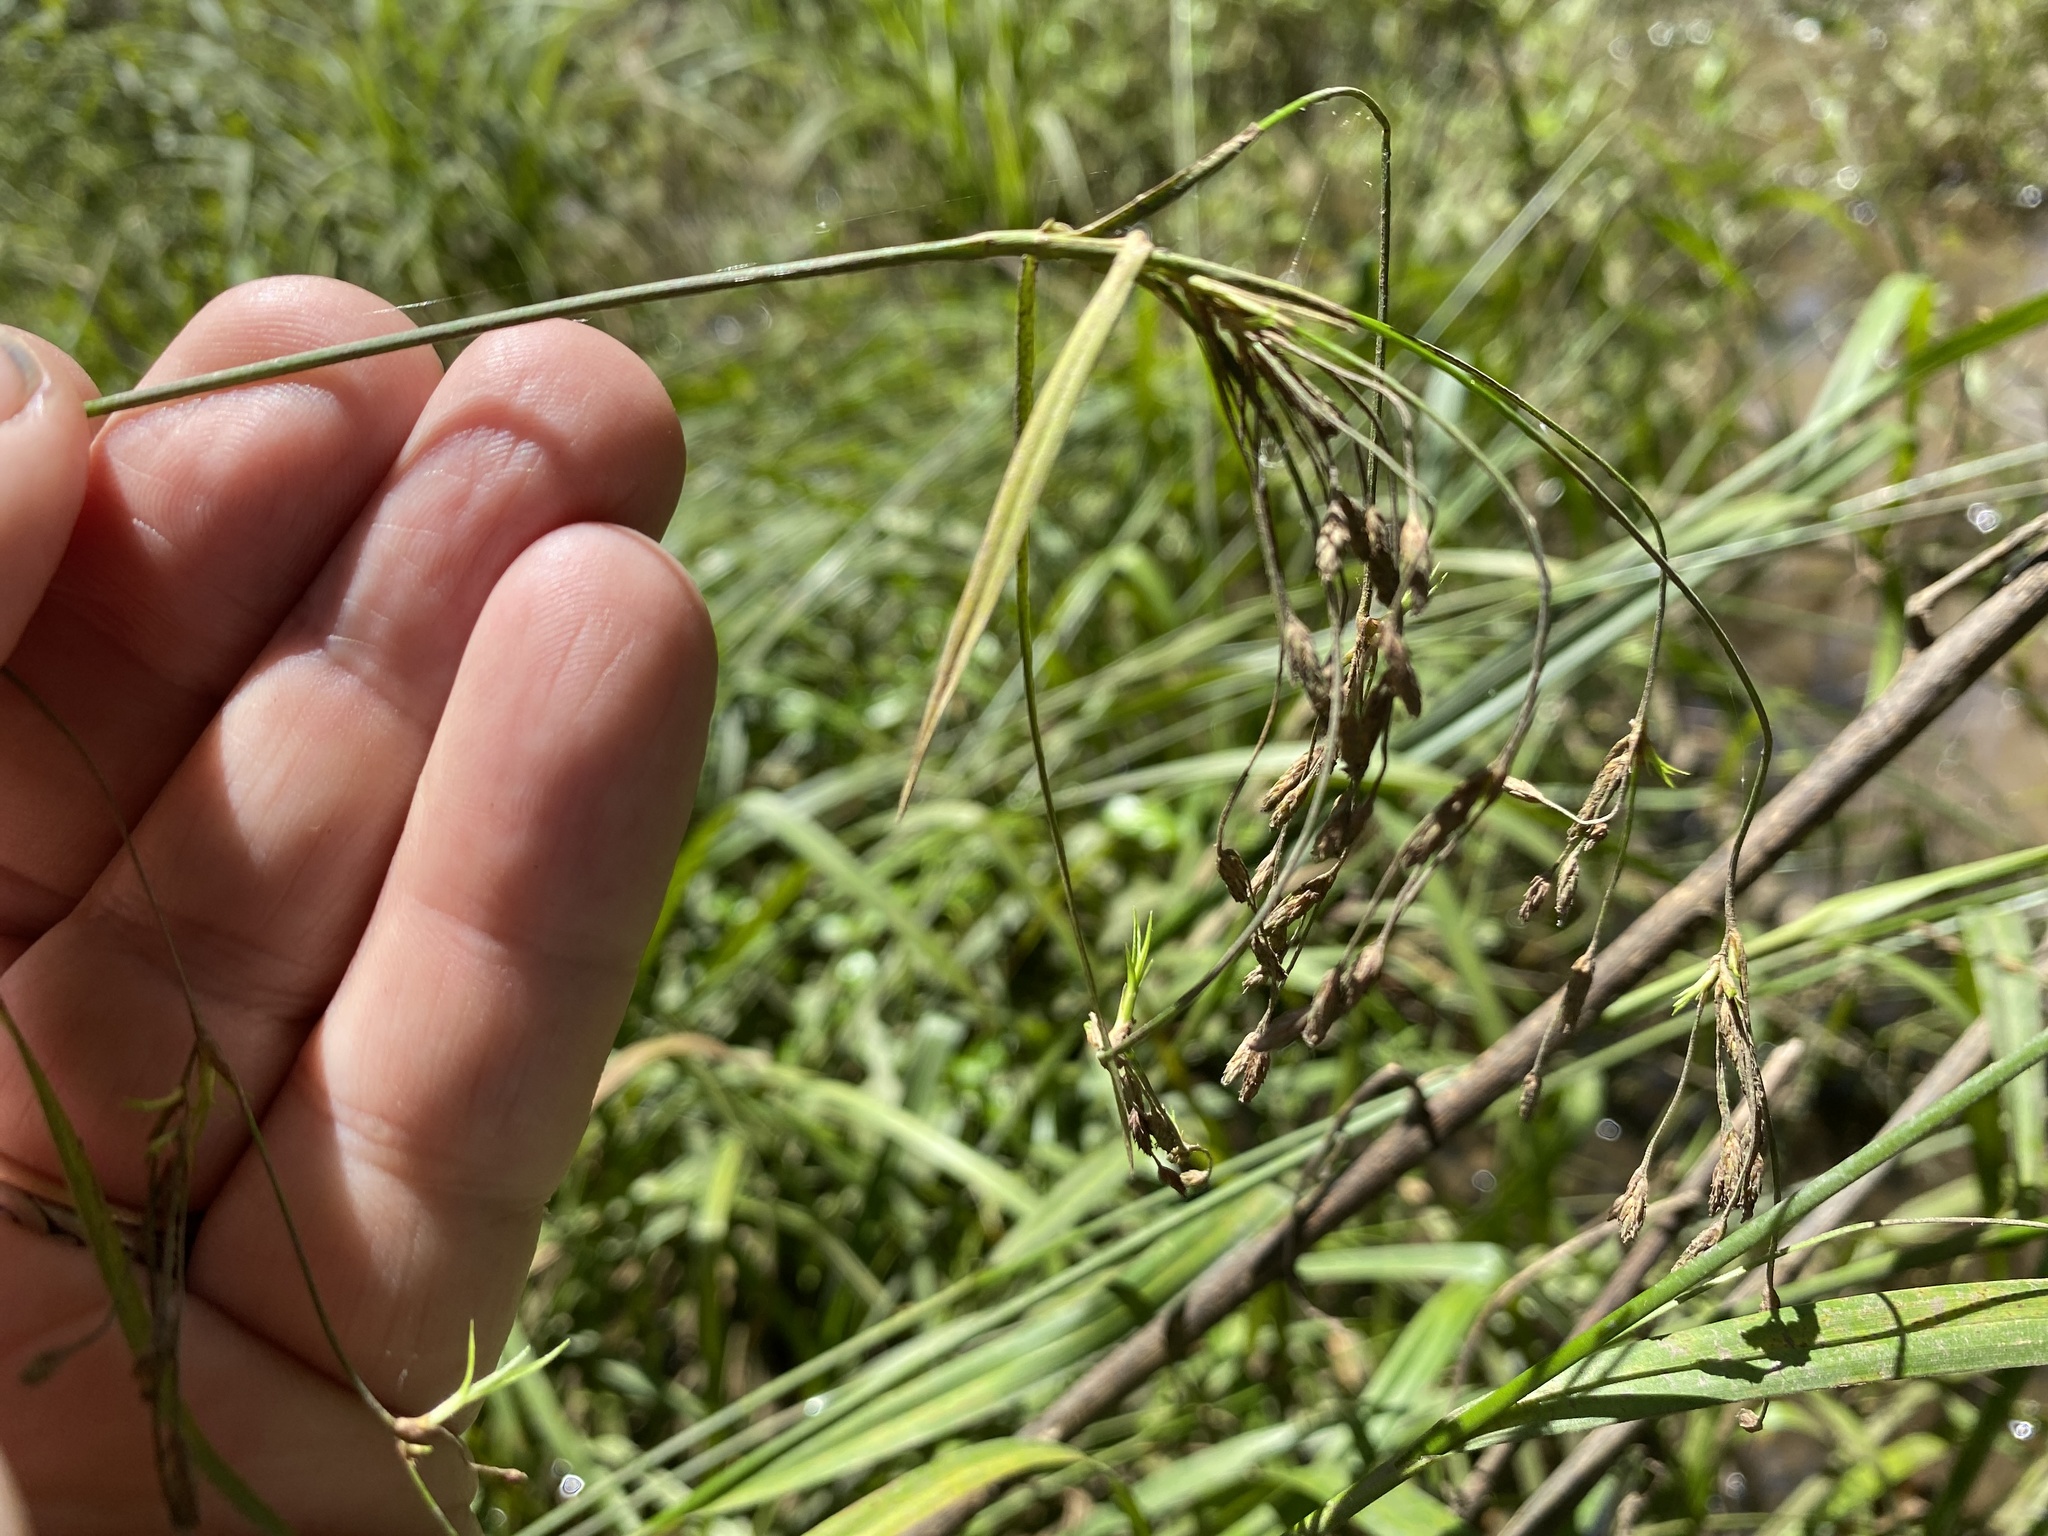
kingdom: Plantae
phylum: Tracheophyta
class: Liliopsida
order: Poales
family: Cyperaceae
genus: Scirpus
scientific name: Scirpus lineatus
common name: Drooping bulrush
